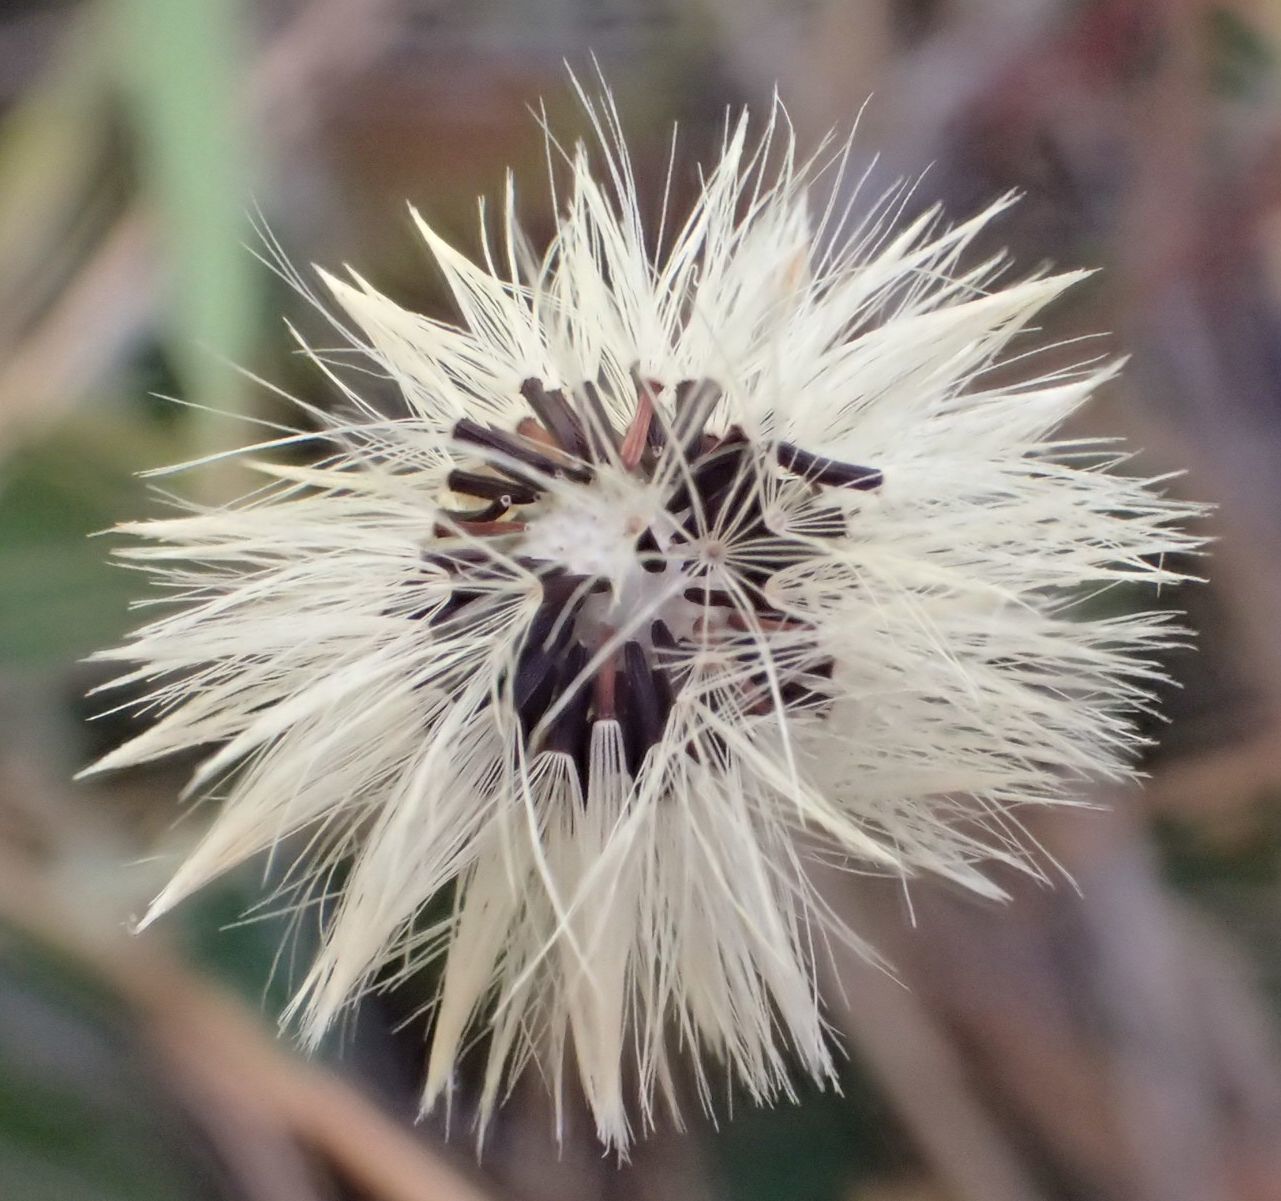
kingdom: Plantae
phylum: Tracheophyta
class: Magnoliopsida
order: Asterales
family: Asteraceae
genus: Pilosella
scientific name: Pilosella officinarum
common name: Mouse-ear hawkweed
